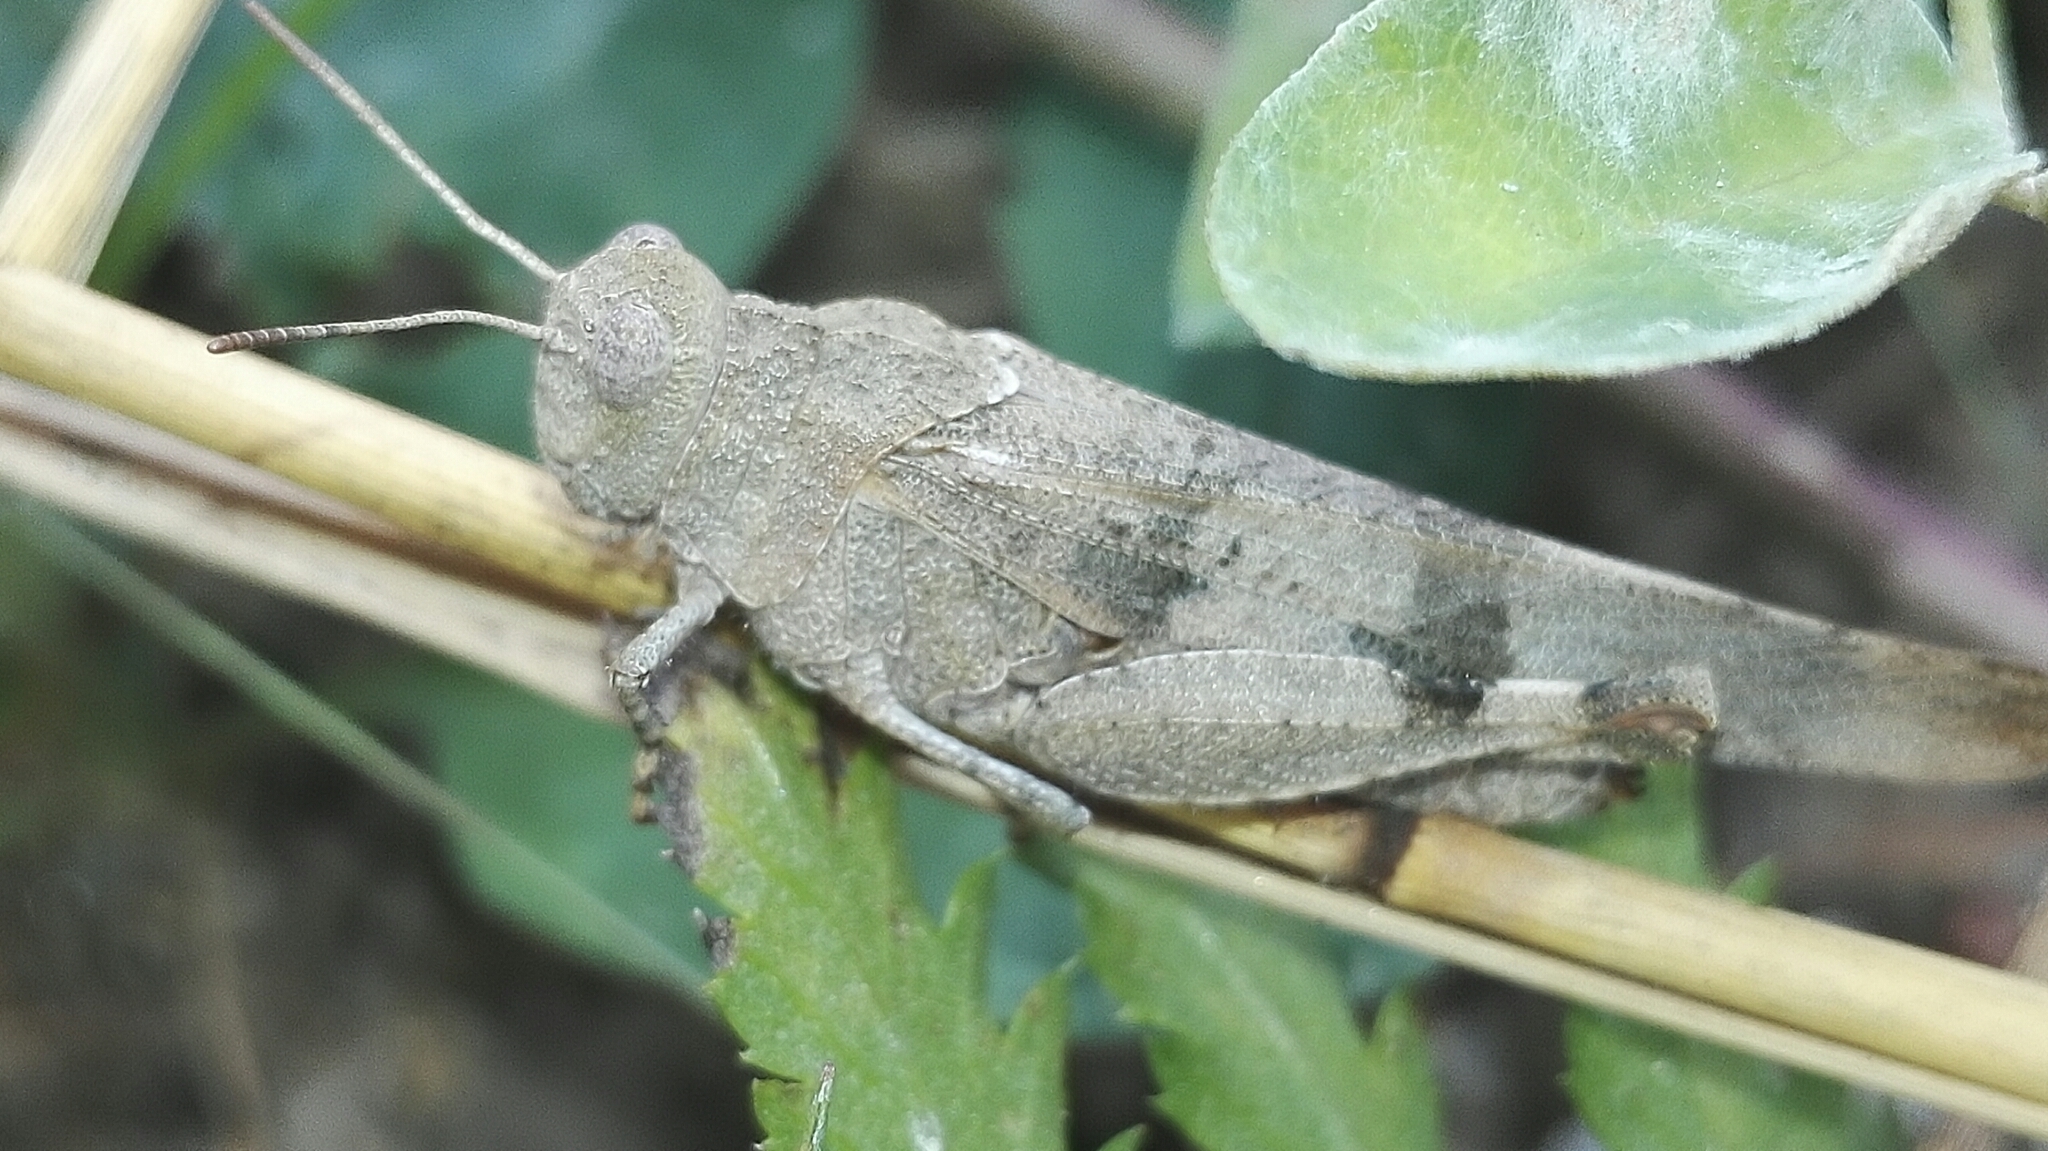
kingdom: Animalia
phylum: Arthropoda
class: Insecta
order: Orthoptera
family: Acrididae
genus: Oedipoda
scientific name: Oedipoda caerulescens
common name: Blue-winged grasshopper
